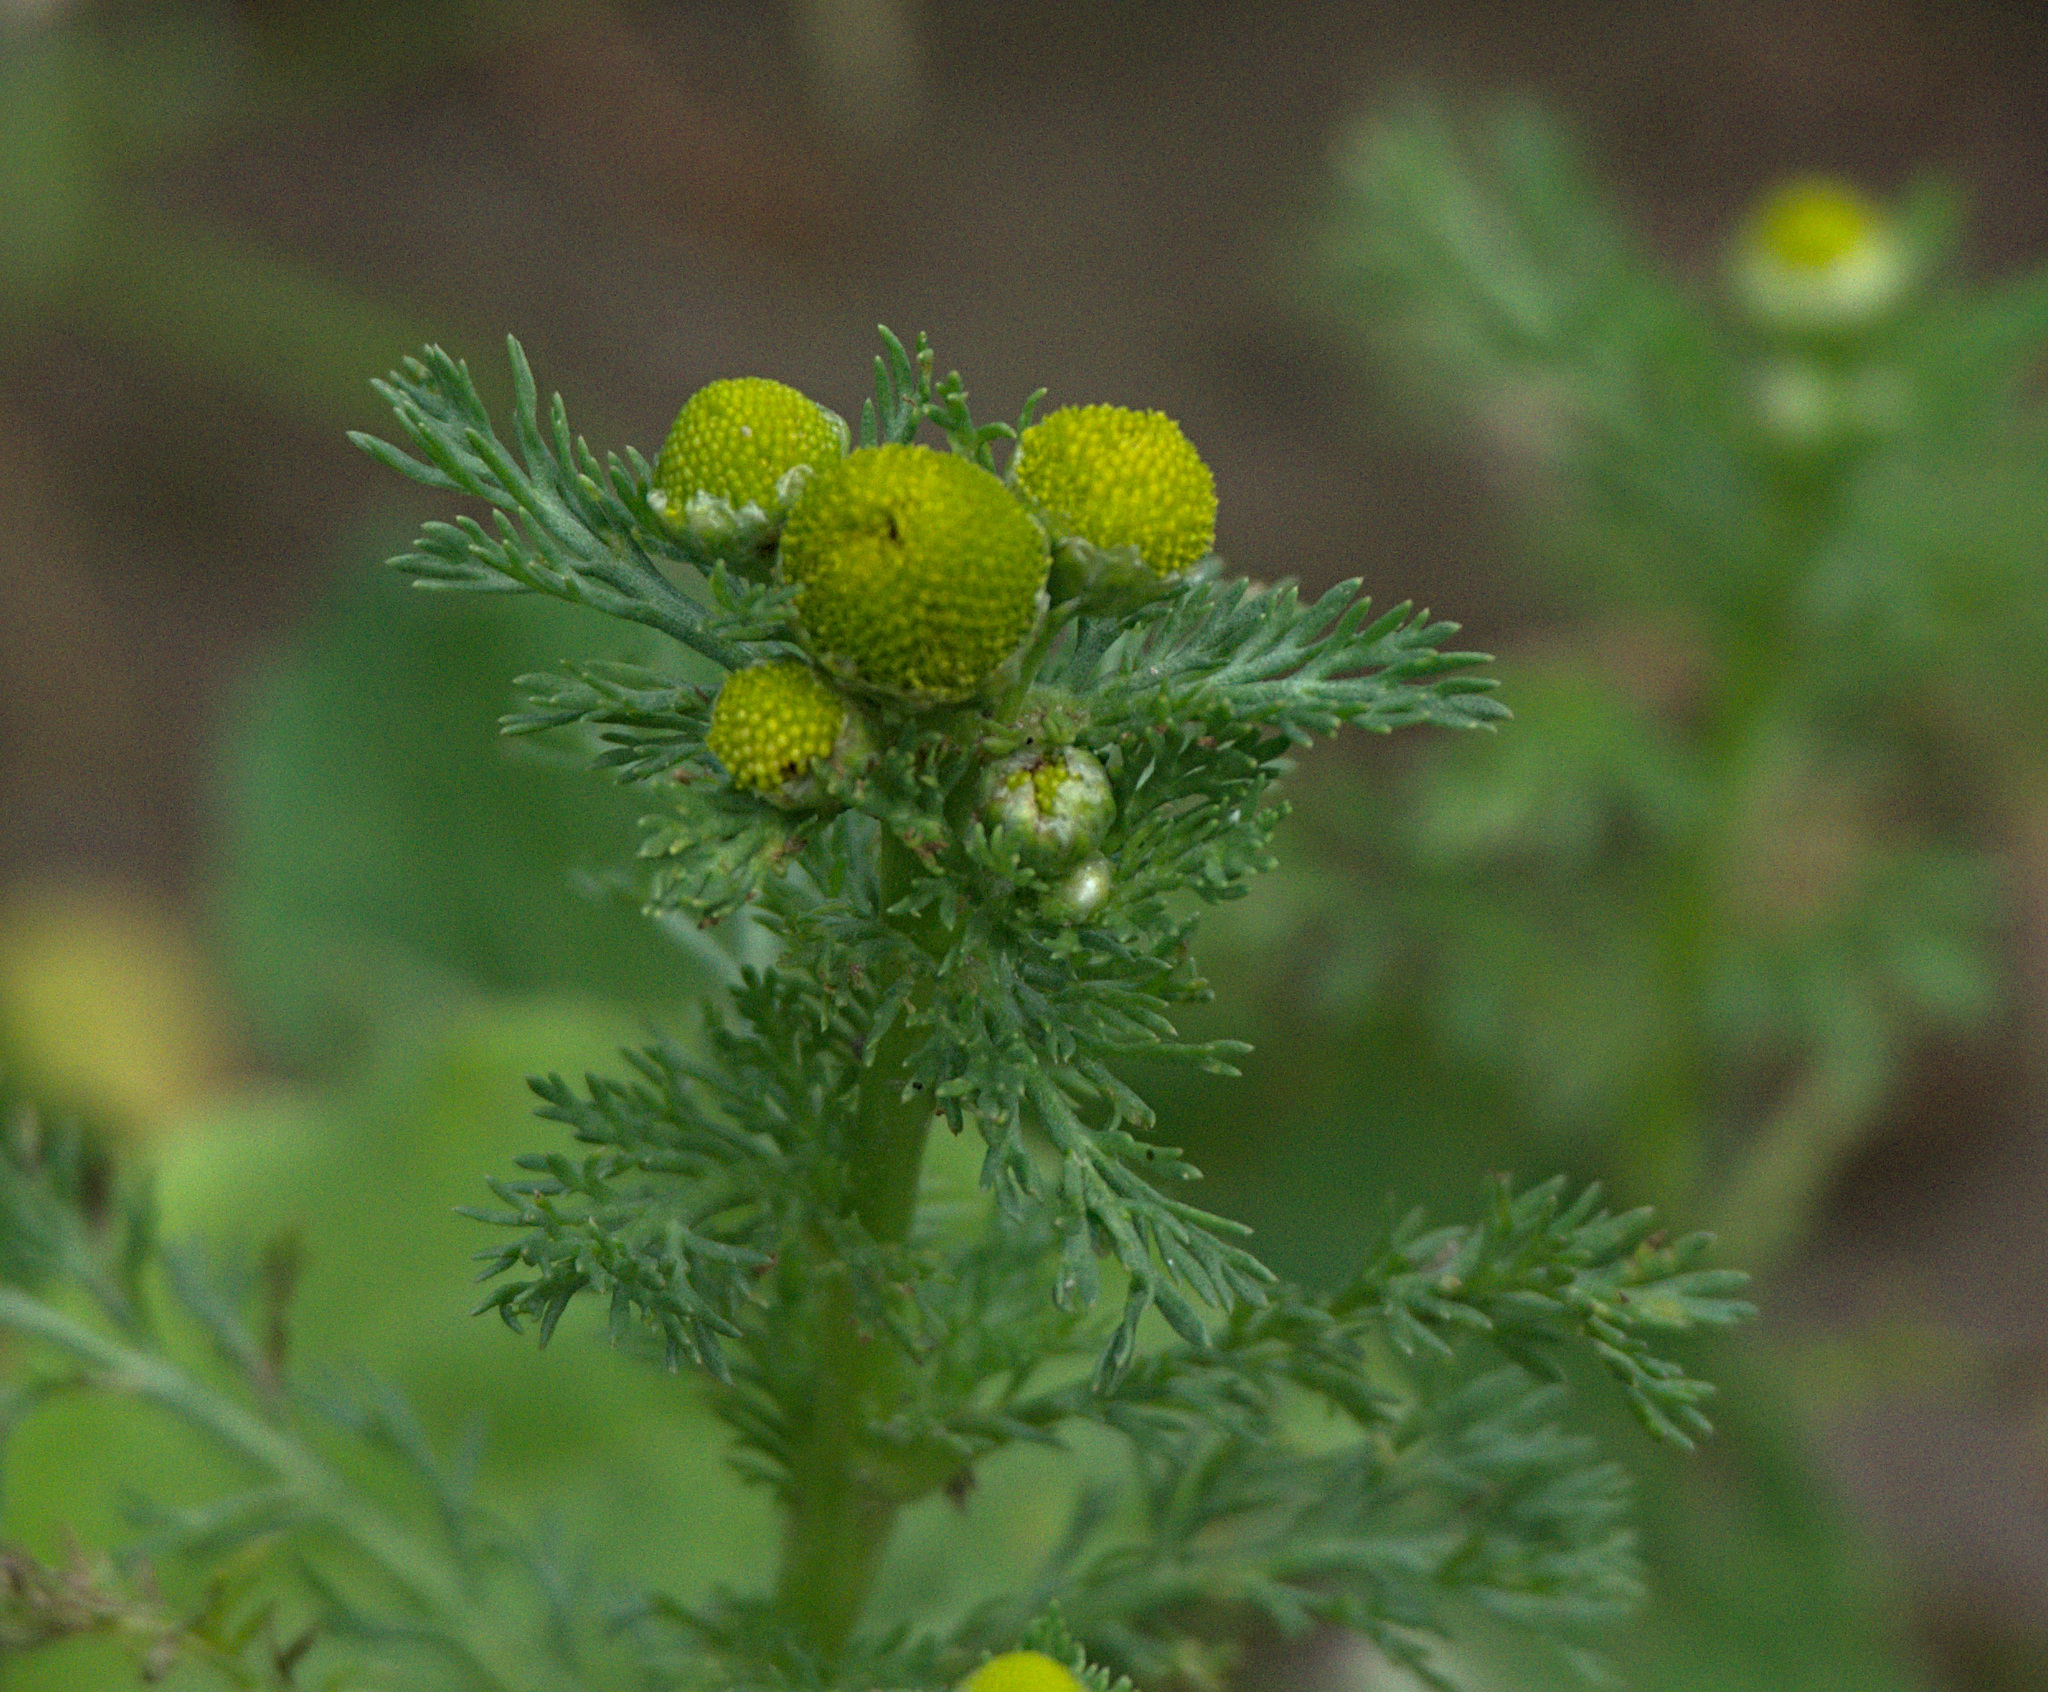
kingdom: Plantae
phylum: Tracheophyta
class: Magnoliopsida
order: Asterales
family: Asteraceae
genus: Matricaria
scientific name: Matricaria discoidea
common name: Disc mayweed
